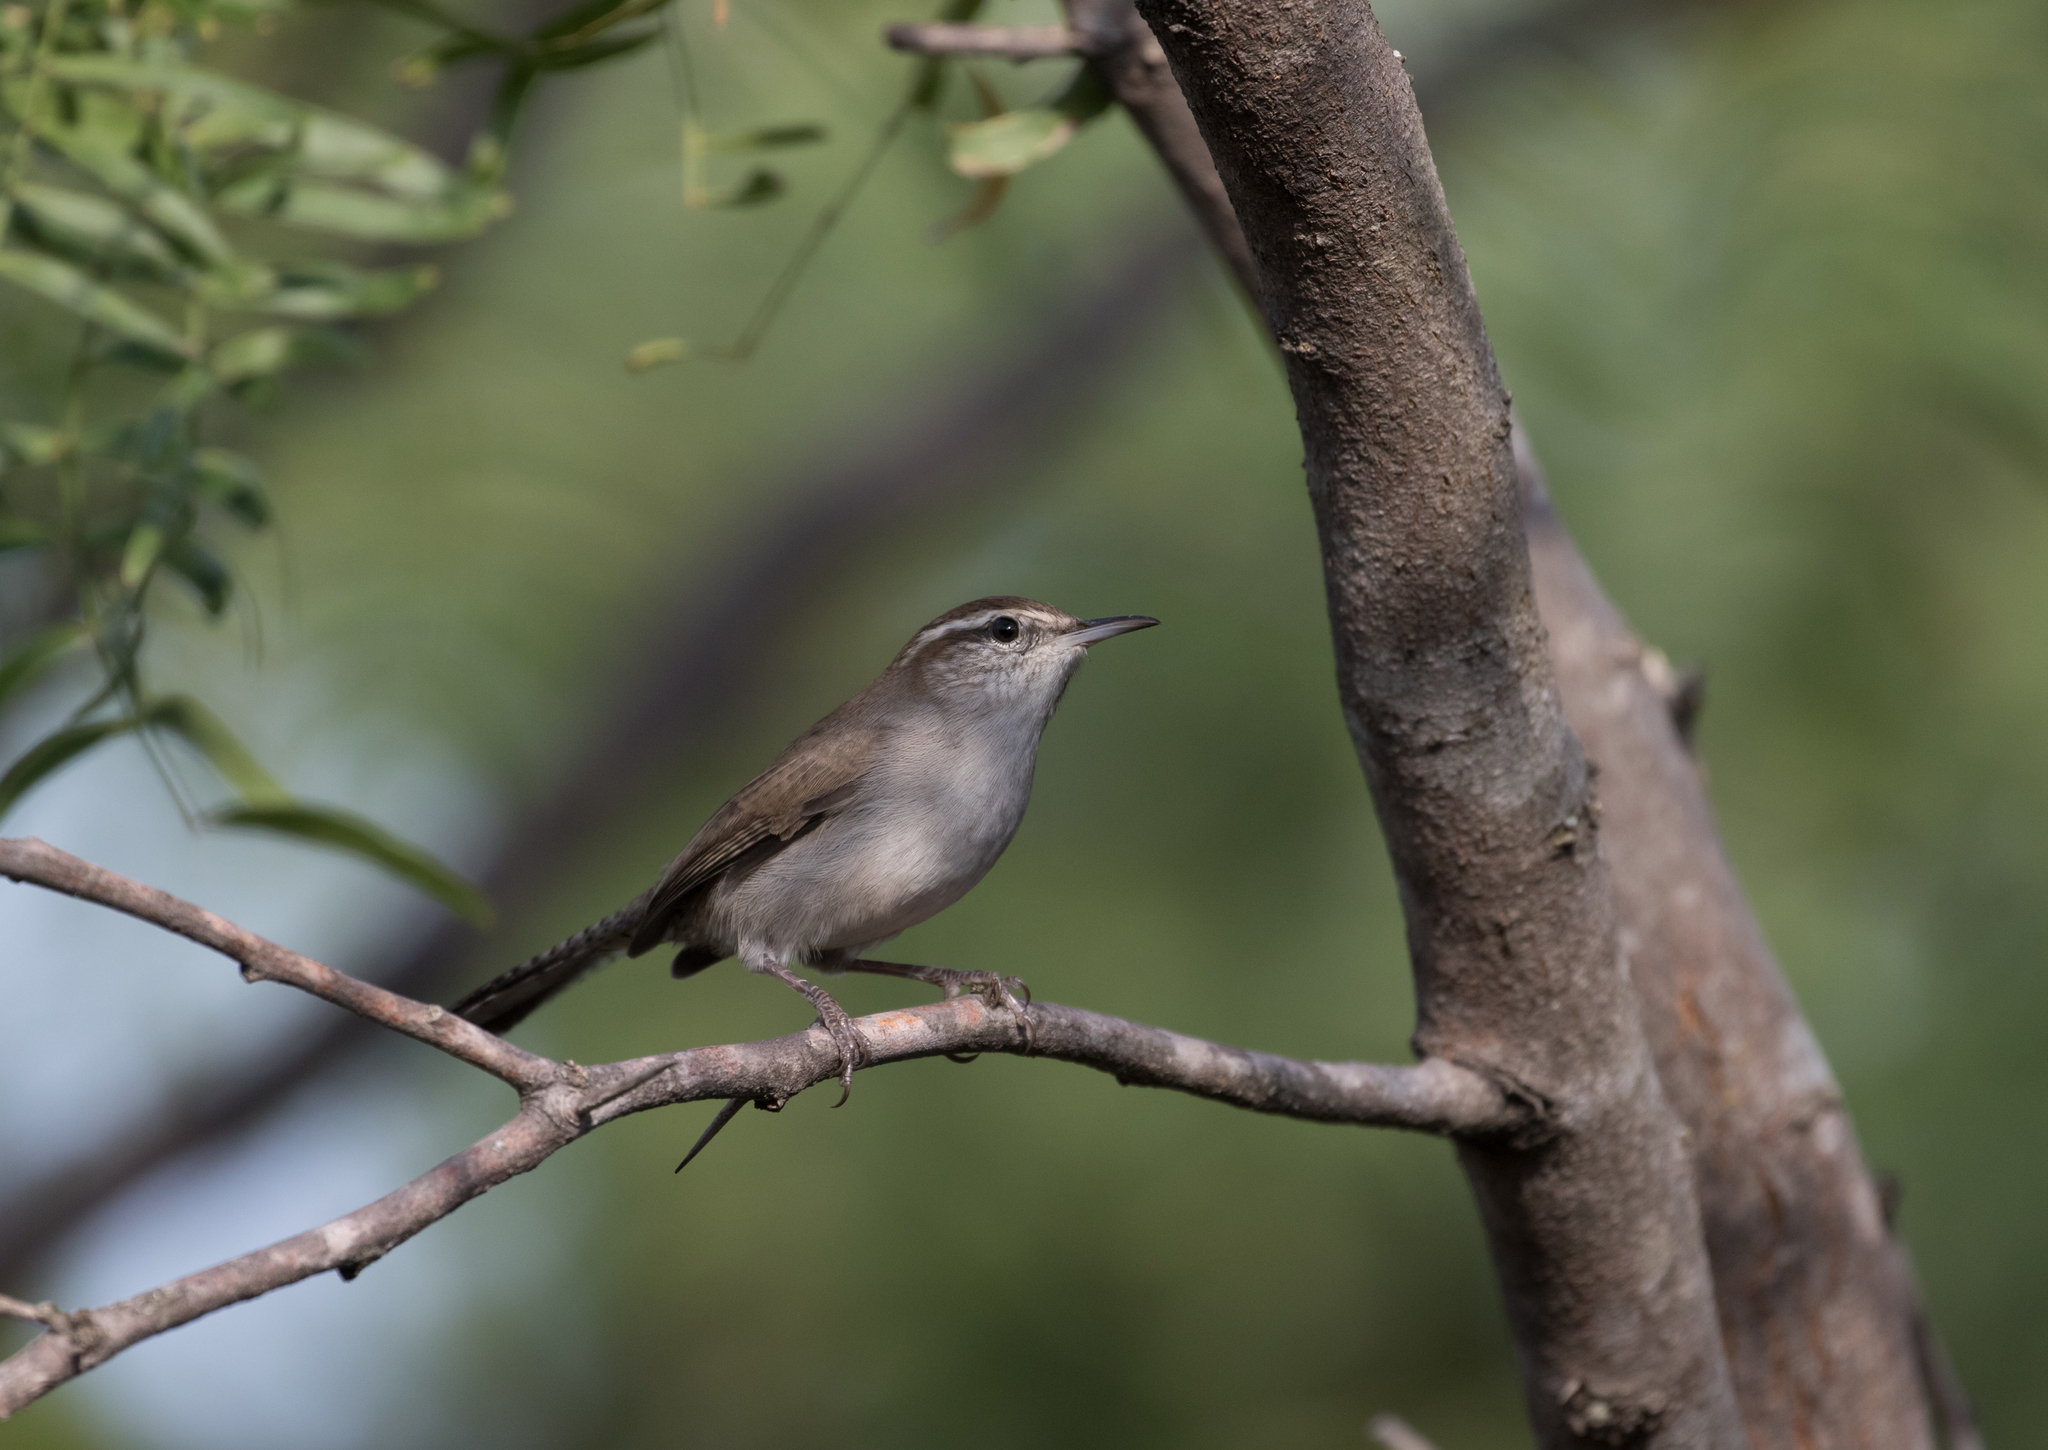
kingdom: Animalia
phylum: Chordata
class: Aves
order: Passeriformes
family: Troglodytidae
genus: Thryomanes
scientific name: Thryomanes bewickii
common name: Bewick's wren
